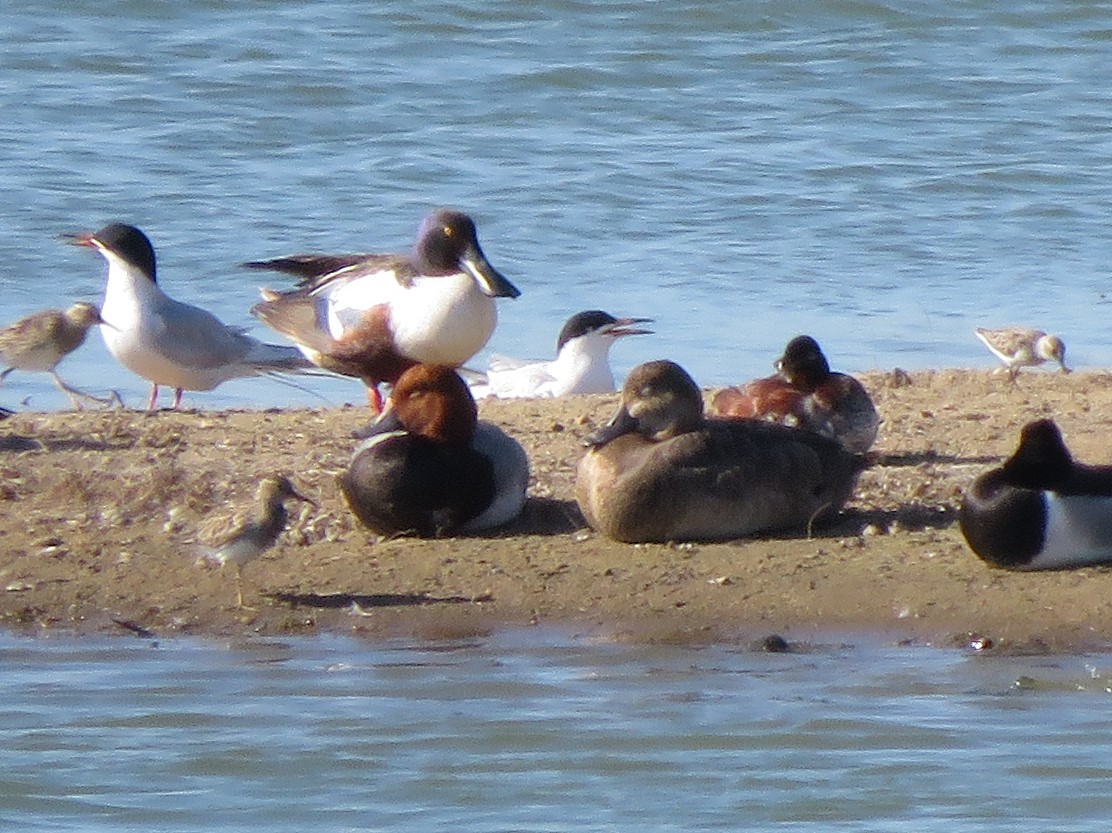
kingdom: Animalia
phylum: Chordata
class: Aves
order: Anseriformes
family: Anatidae
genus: Aythya
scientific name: Aythya americana
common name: Redhead
